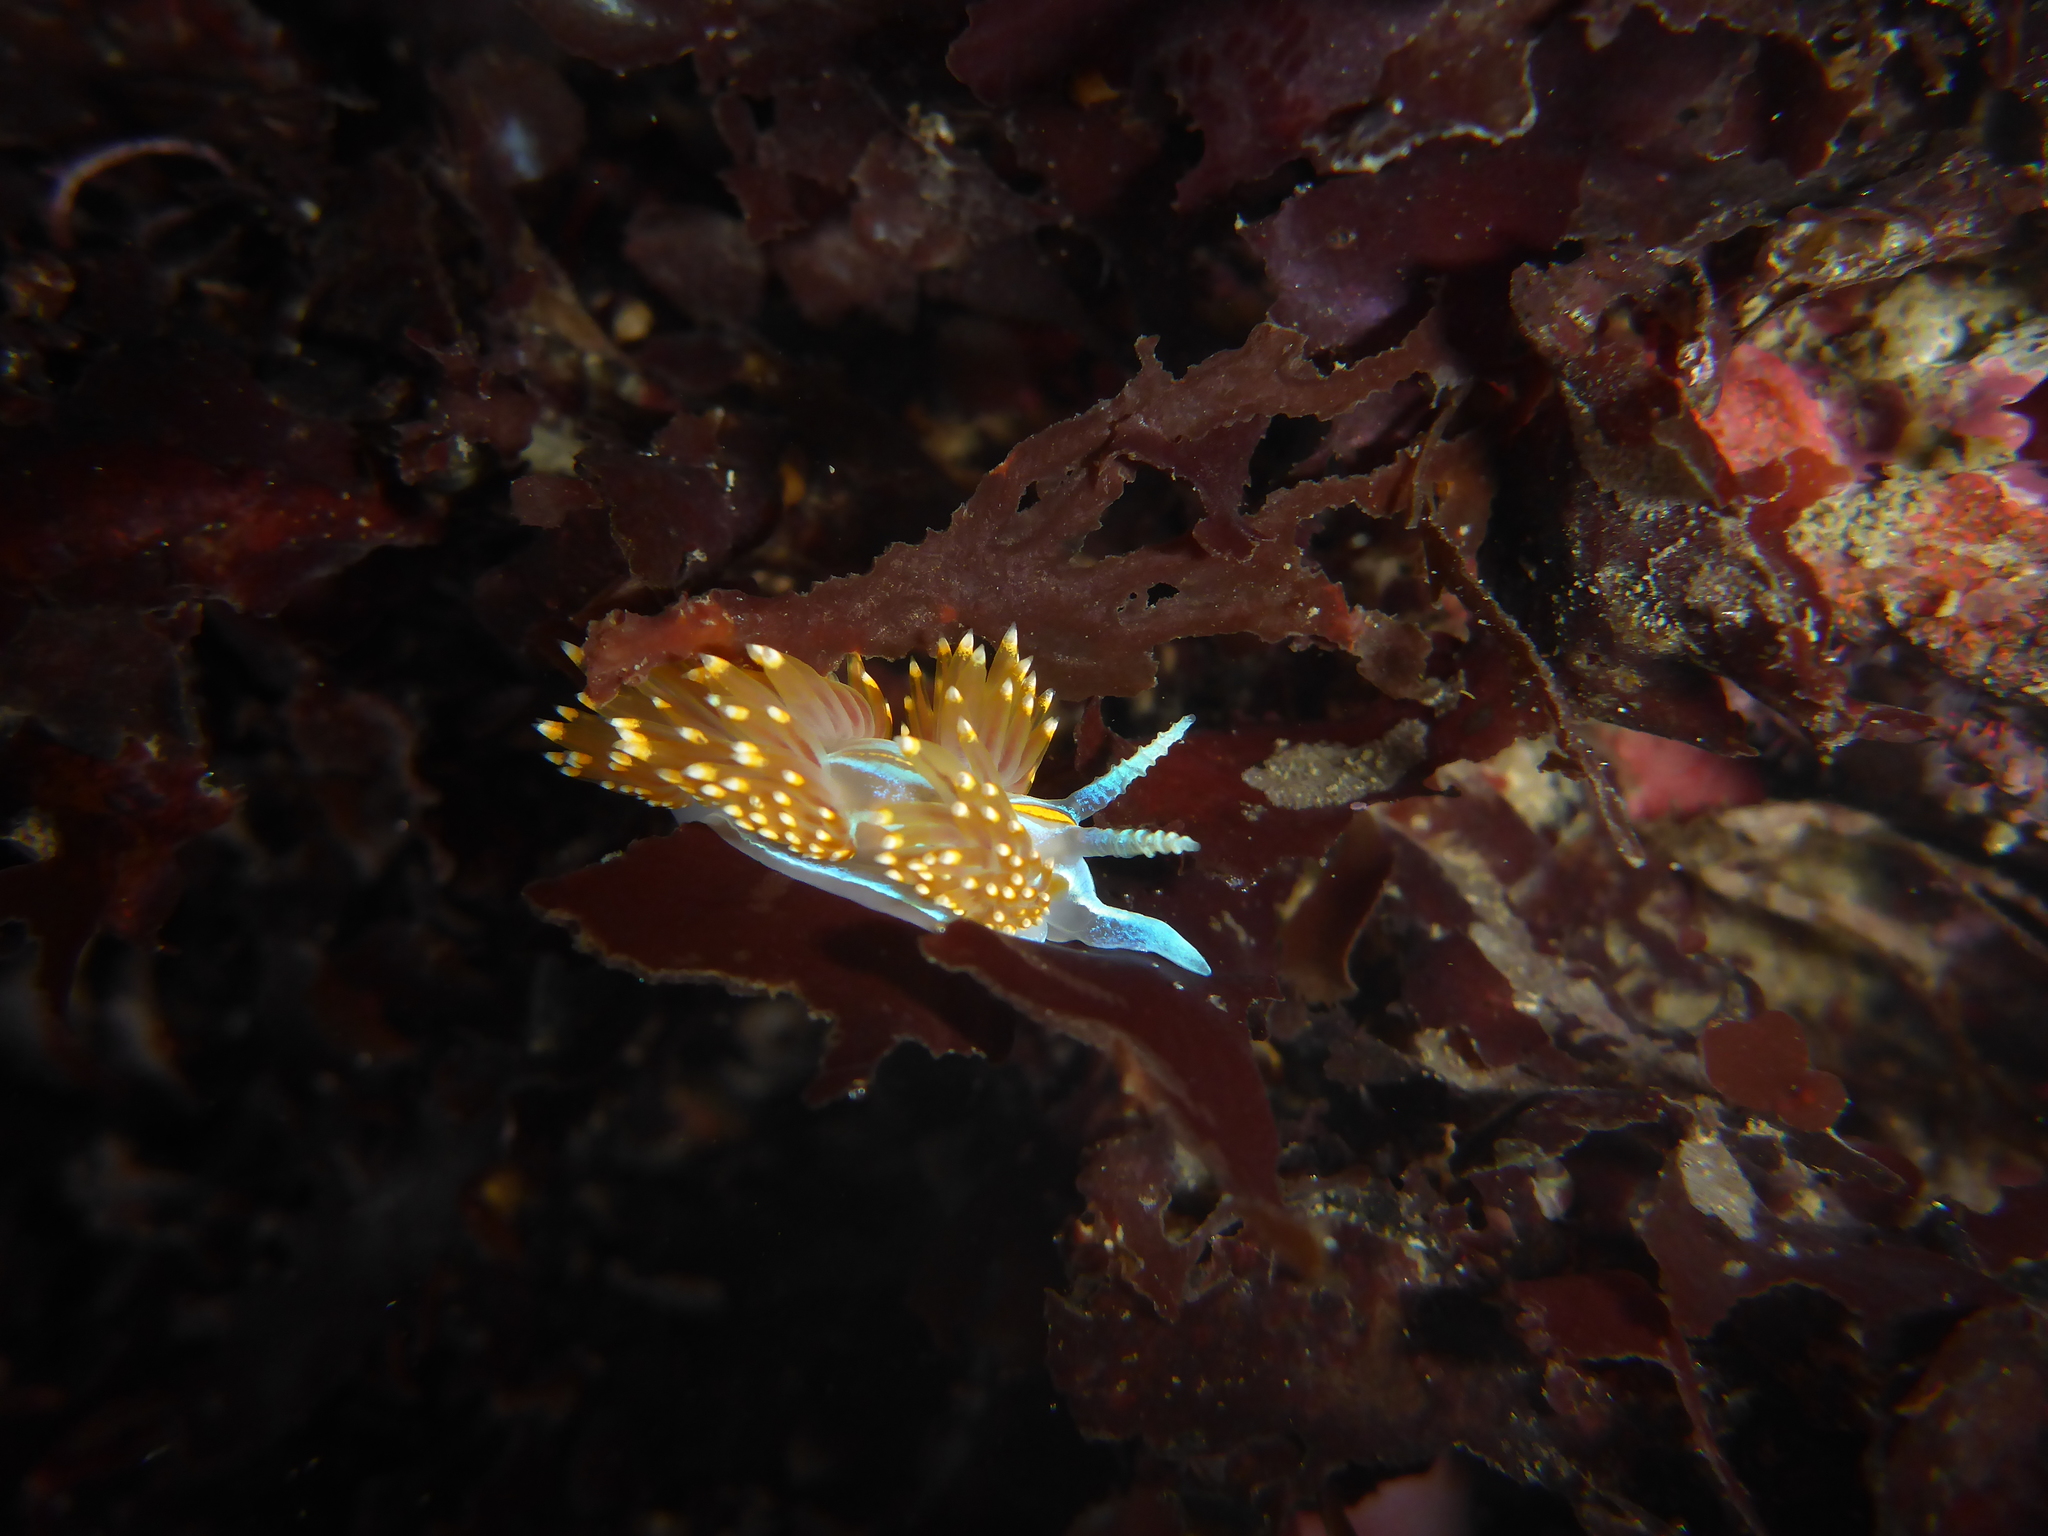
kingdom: Animalia
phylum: Mollusca
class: Gastropoda
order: Nudibranchia
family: Myrrhinidae
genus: Hermissenda
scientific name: Hermissenda opalescens
